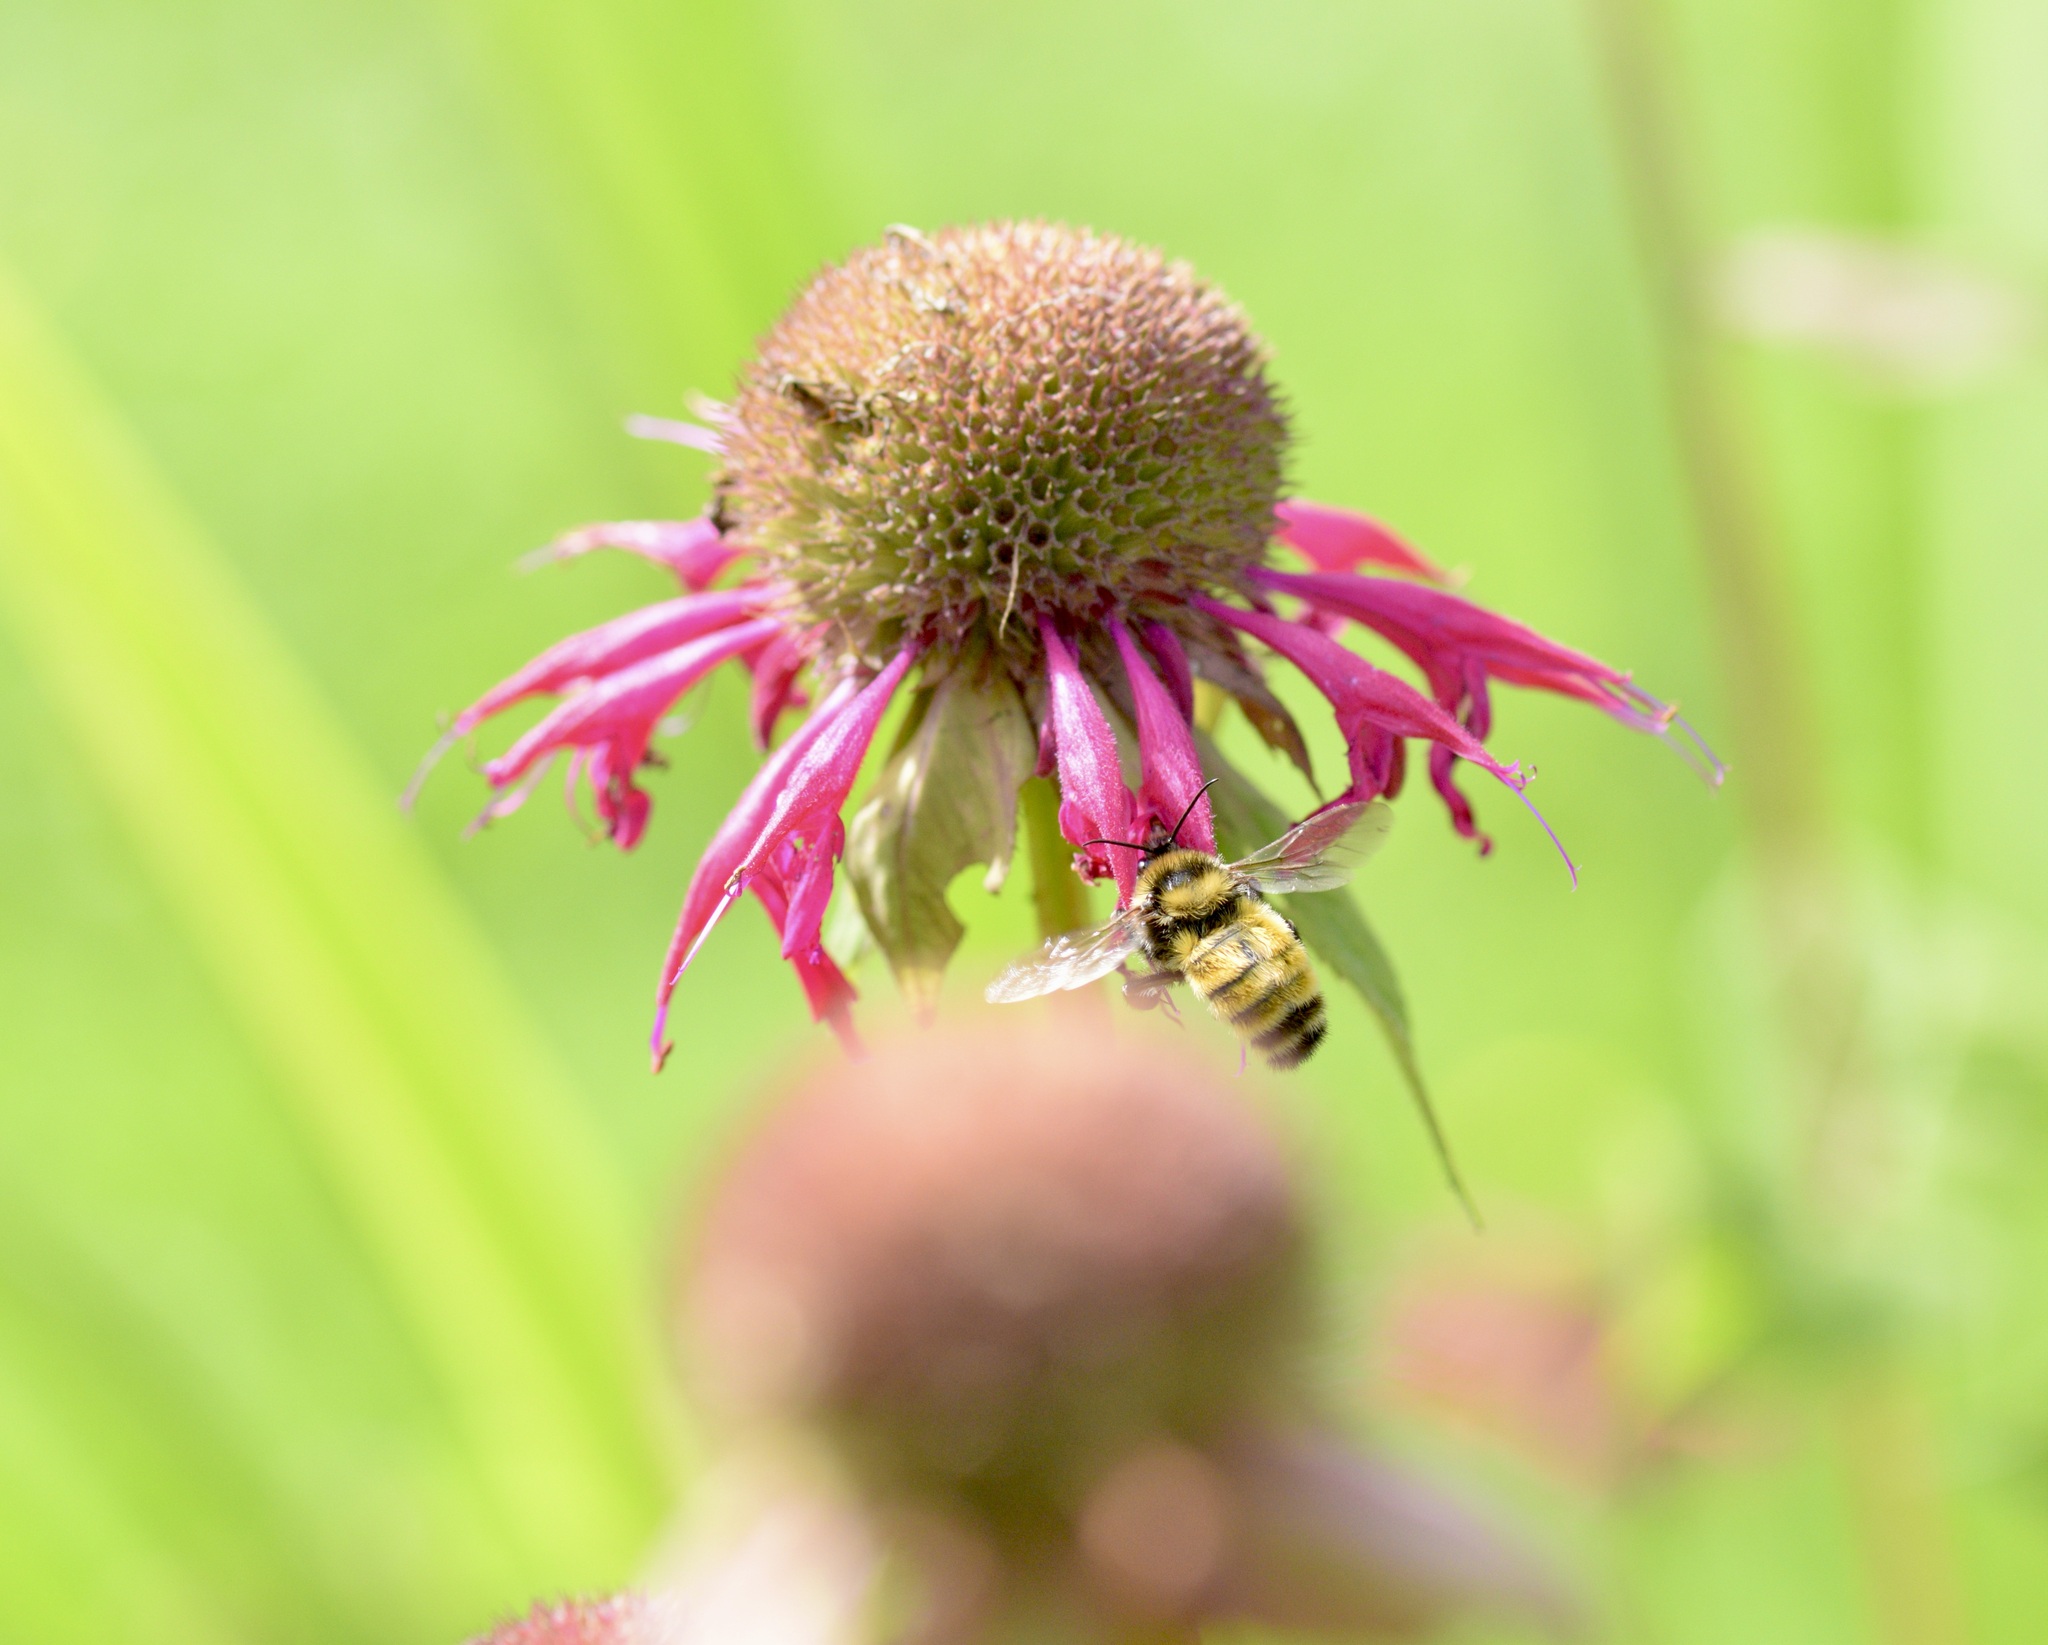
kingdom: Animalia
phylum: Arthropoda
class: Insecta
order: Hymenoptera
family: Apidae
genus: Bombus
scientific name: Bombus borealis
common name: Northern amber bumble bee
